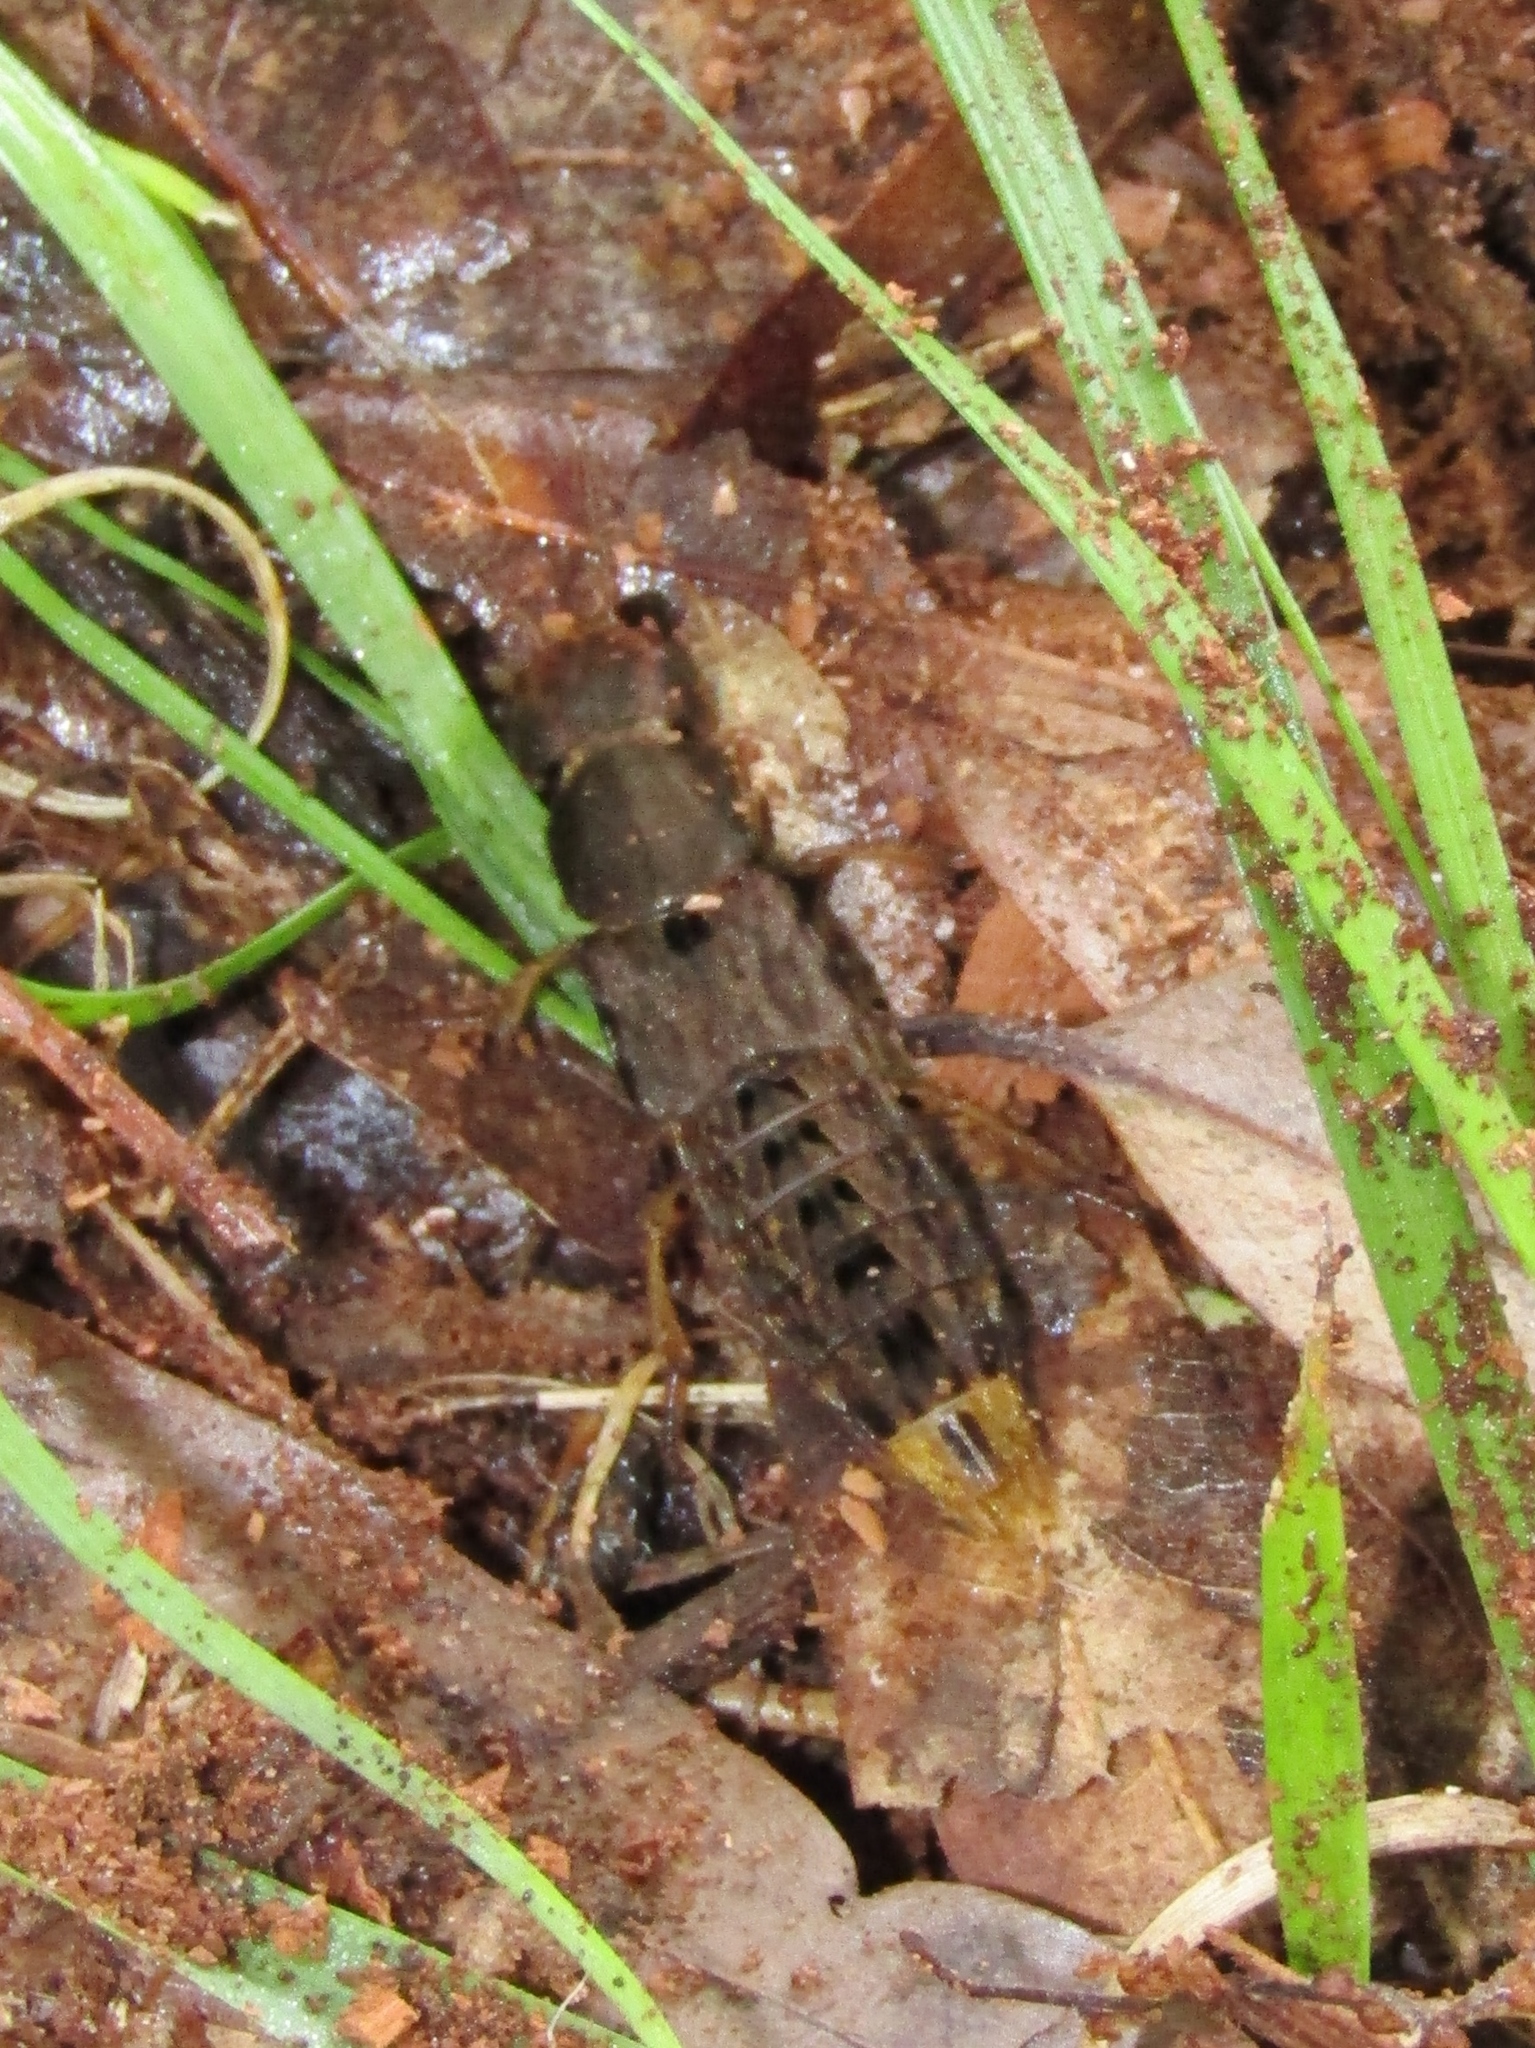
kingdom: Animalia
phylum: Arthropoda
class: Insecta
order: Coleoptera
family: Staphylinidae
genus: Platydracus
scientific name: Platydracus maculosus
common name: Brown rove beetle
